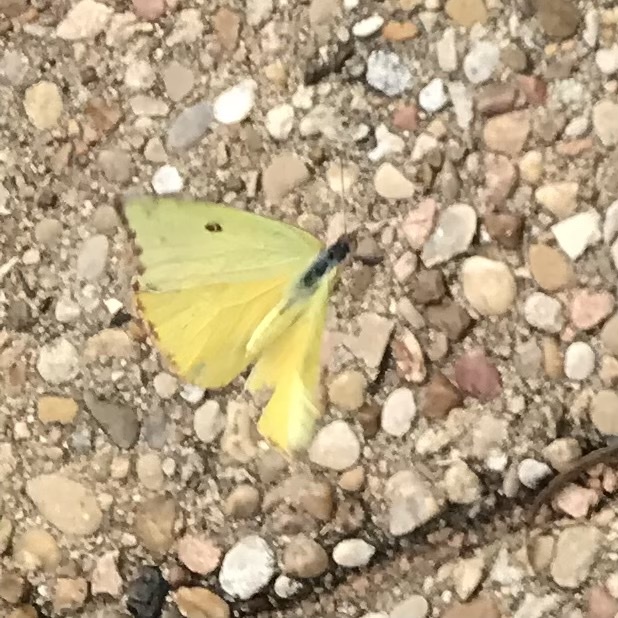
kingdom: Animalia
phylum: Arthropoda
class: Insecta
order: Lepidoptera
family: Pieridae
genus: Phoebis
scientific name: Phoebis sennae
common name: Cloudless sulphur
